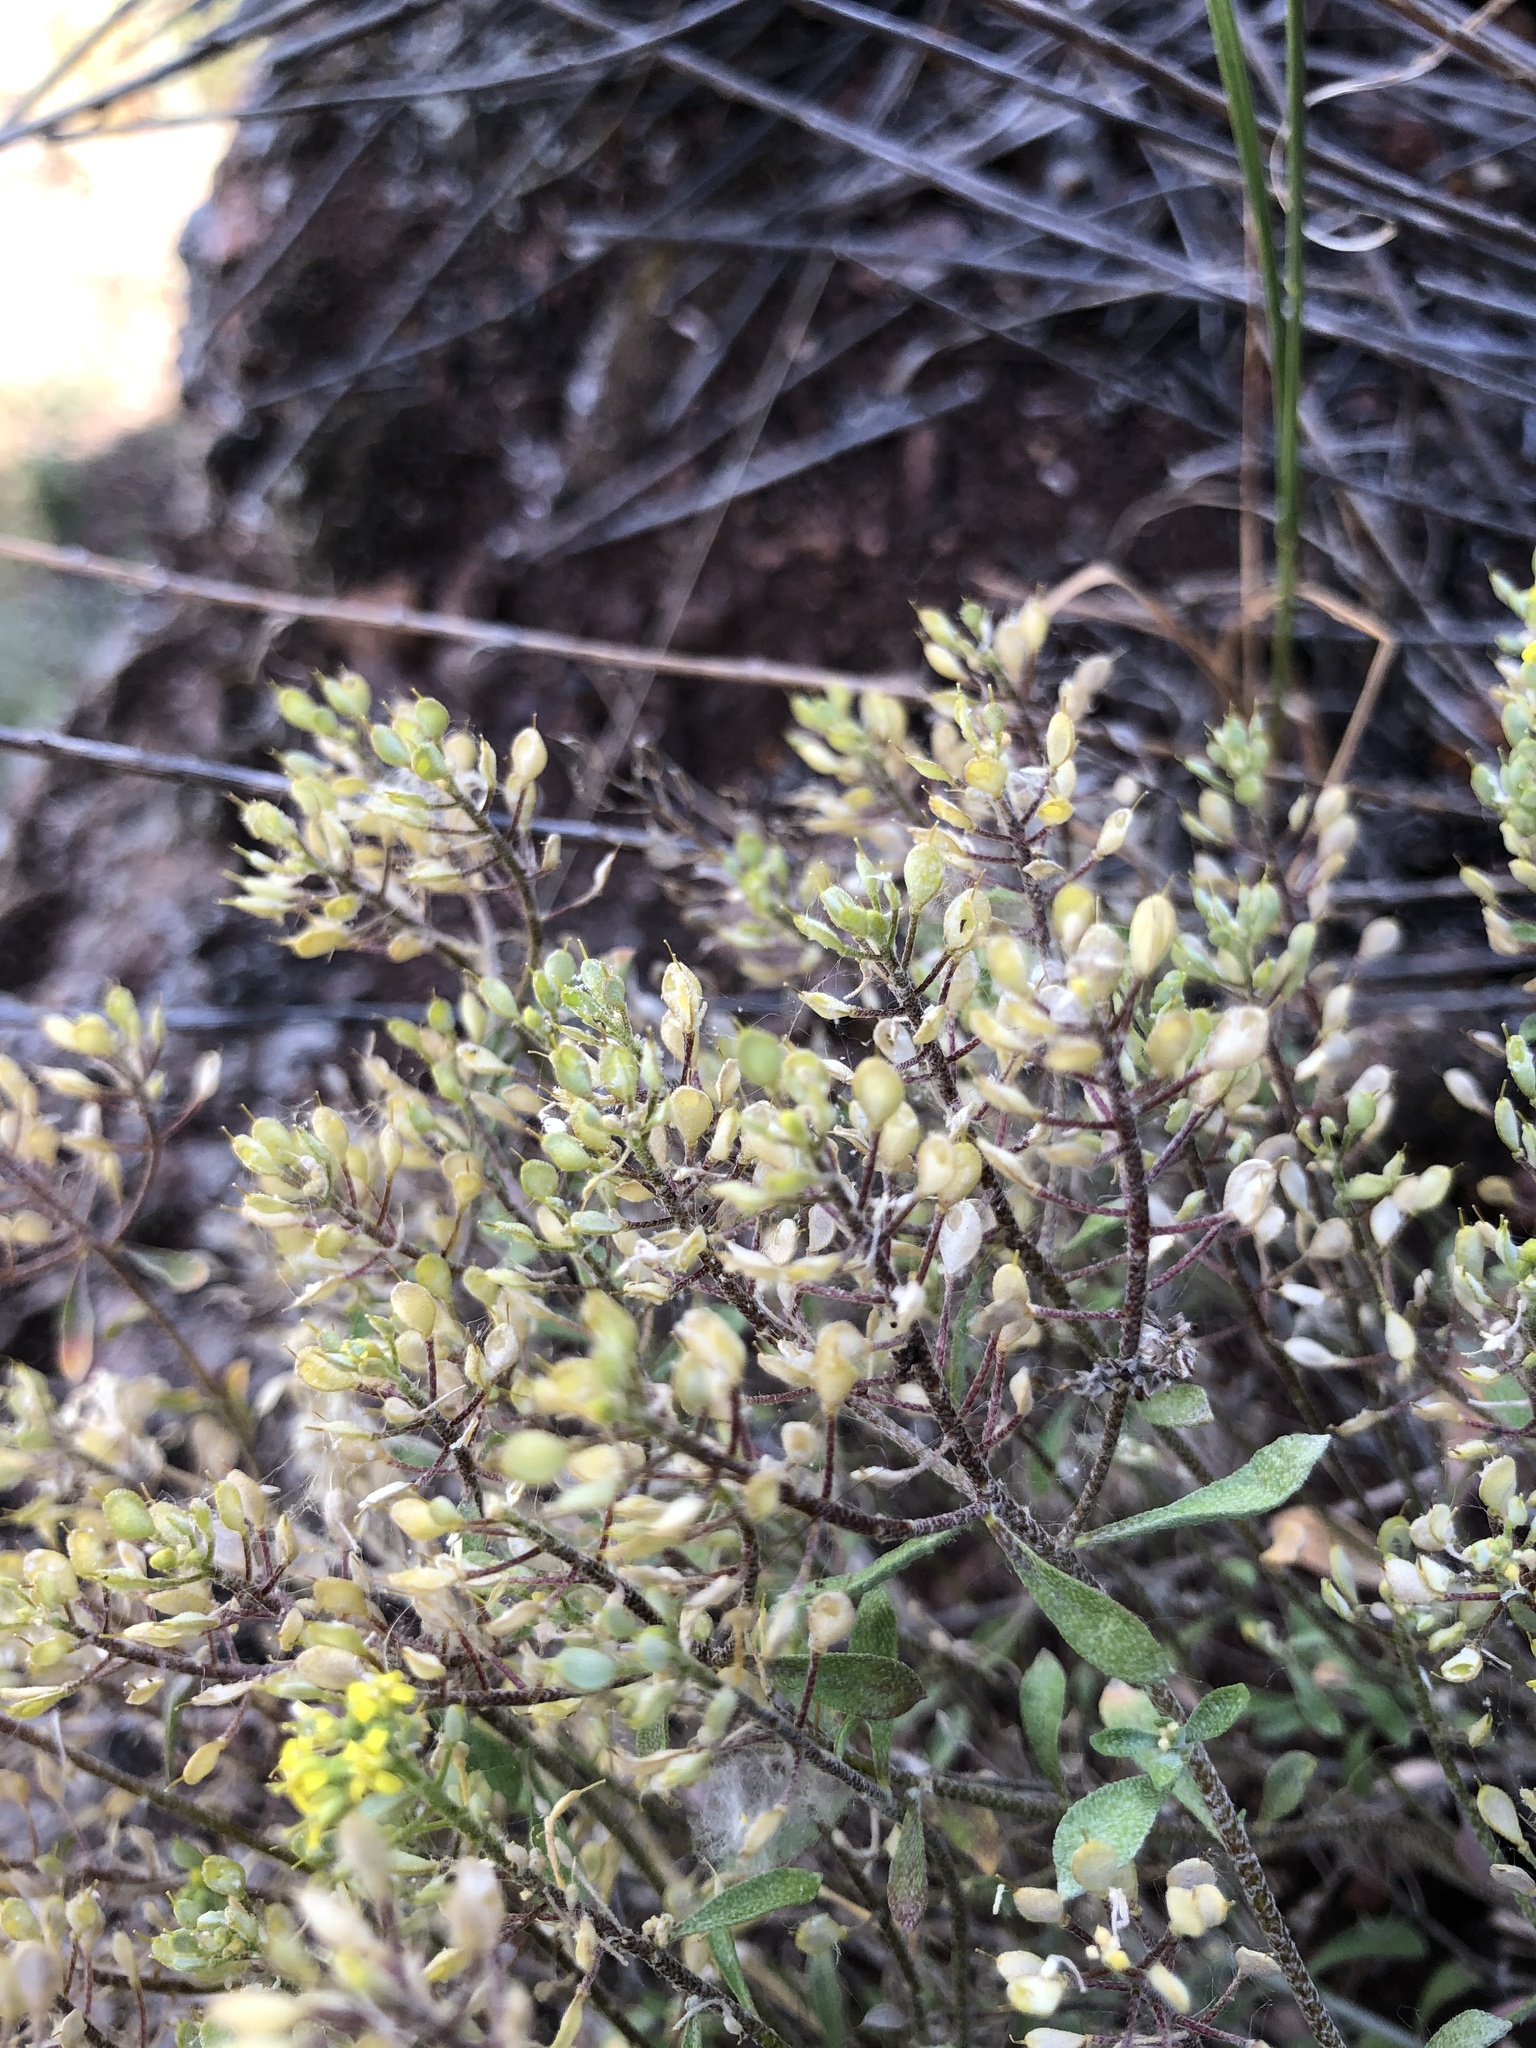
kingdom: Plantae
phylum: Tracheophyta
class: Magnoliopsida
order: Brassicales
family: Brassicaceae
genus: Odontarrhena
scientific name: Odontarrhena tortuosa
